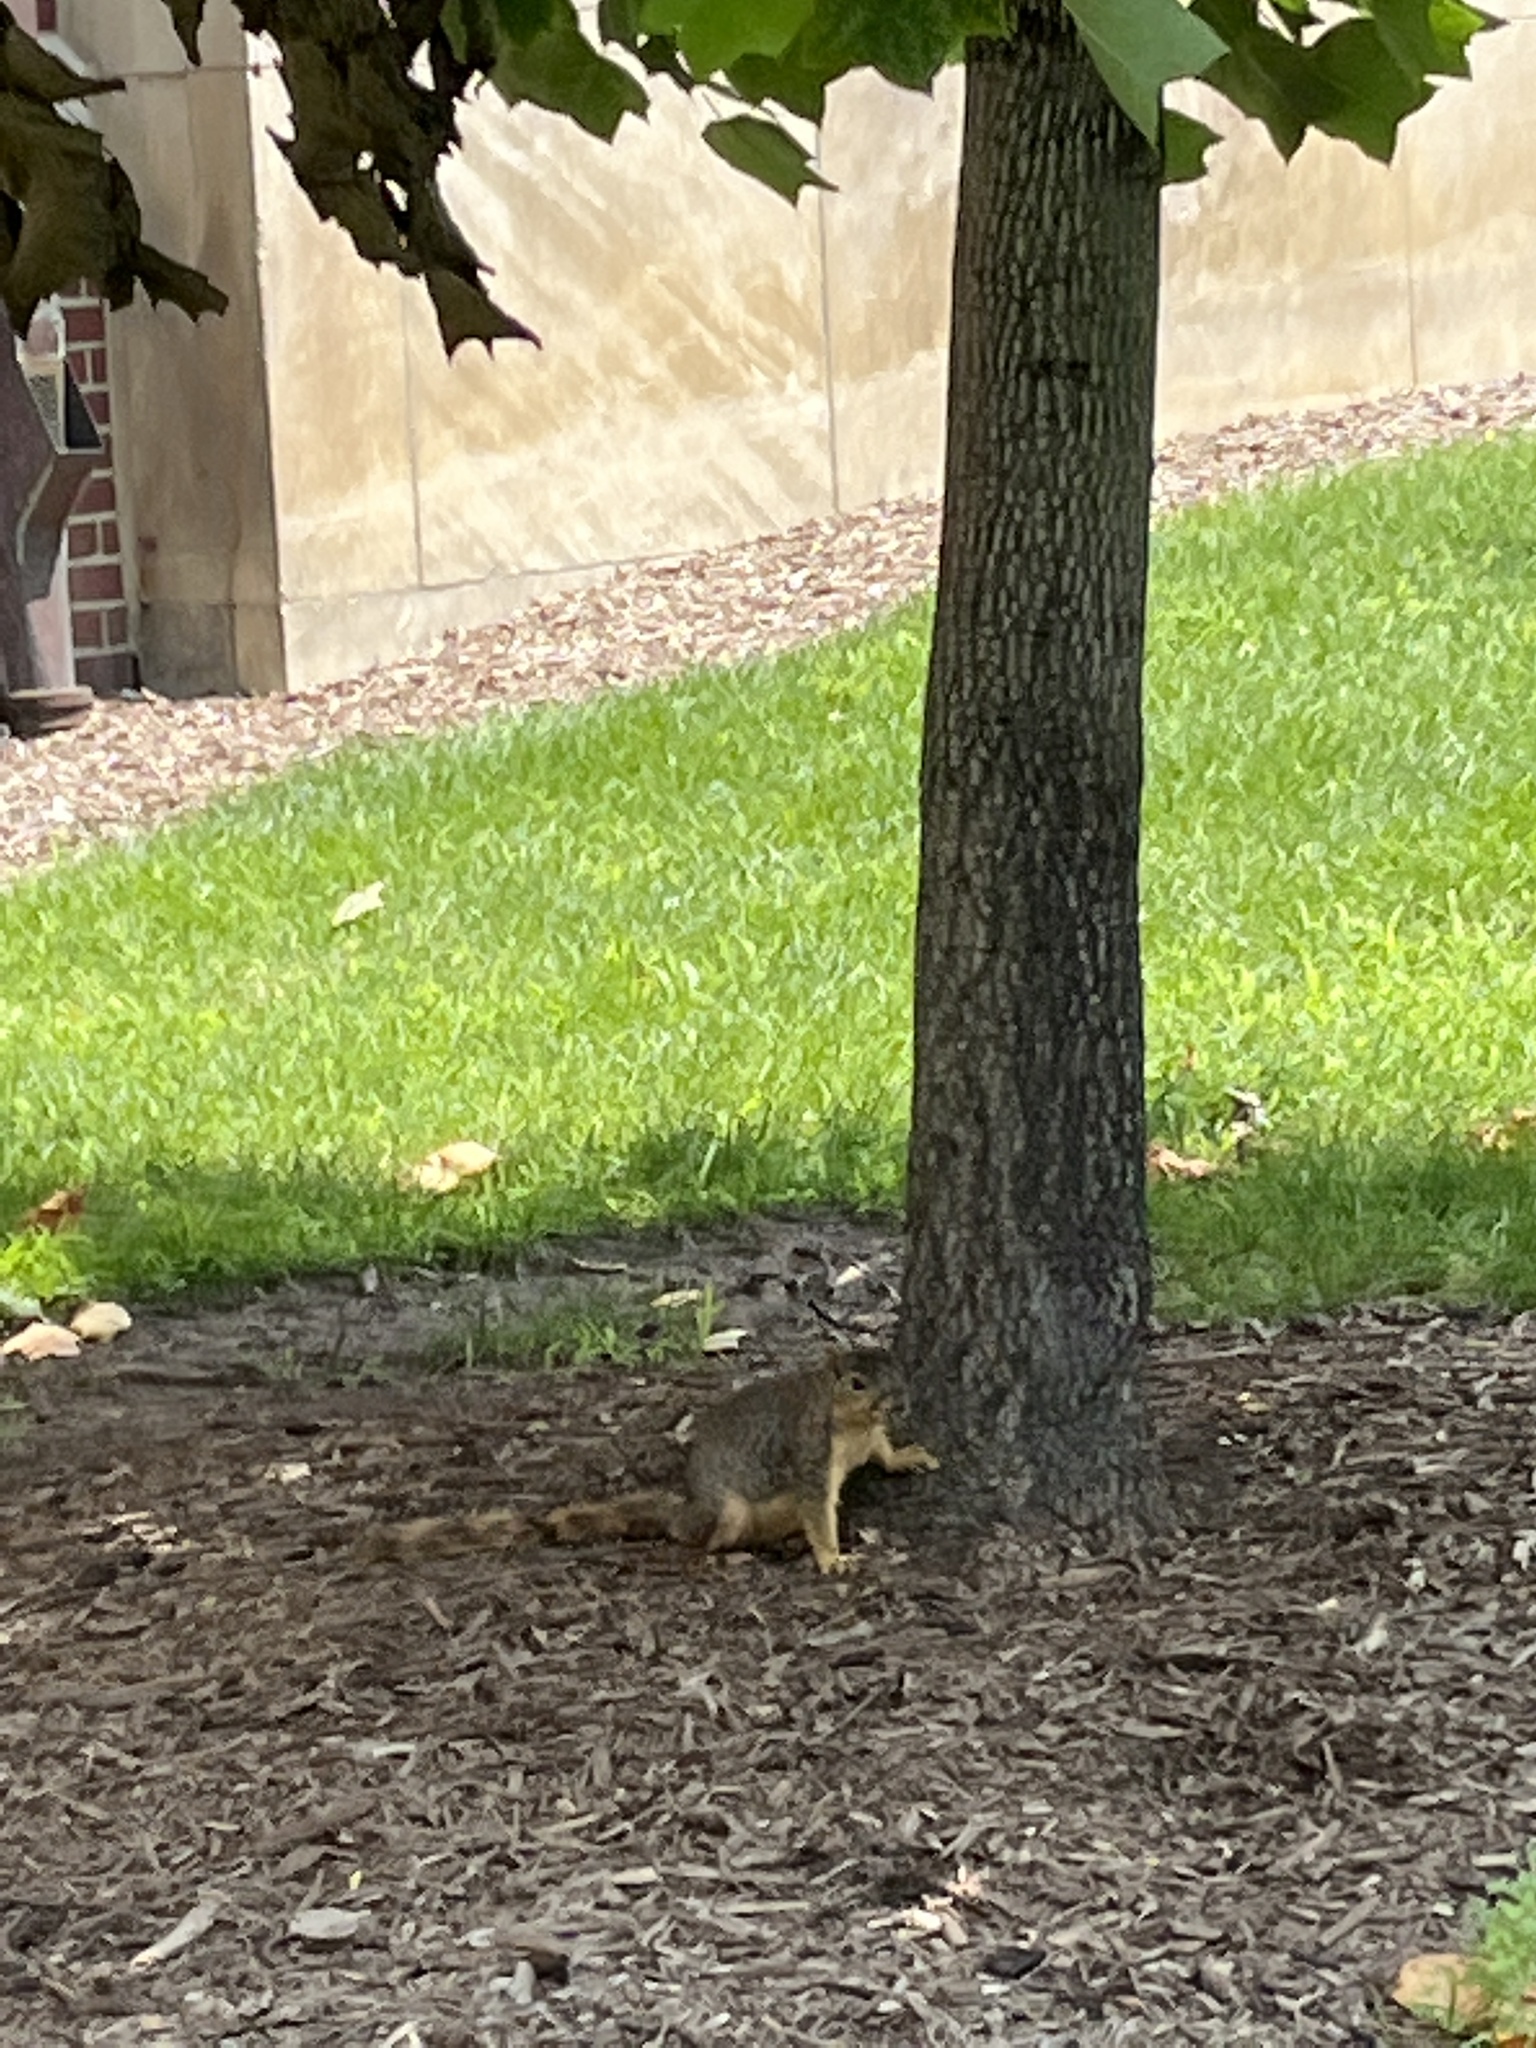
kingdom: Animalia
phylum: Chordata
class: Mammalia
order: Rodentia
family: Sciuridae
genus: Sciurus
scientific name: Sciurus niger
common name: Fox squirrel
